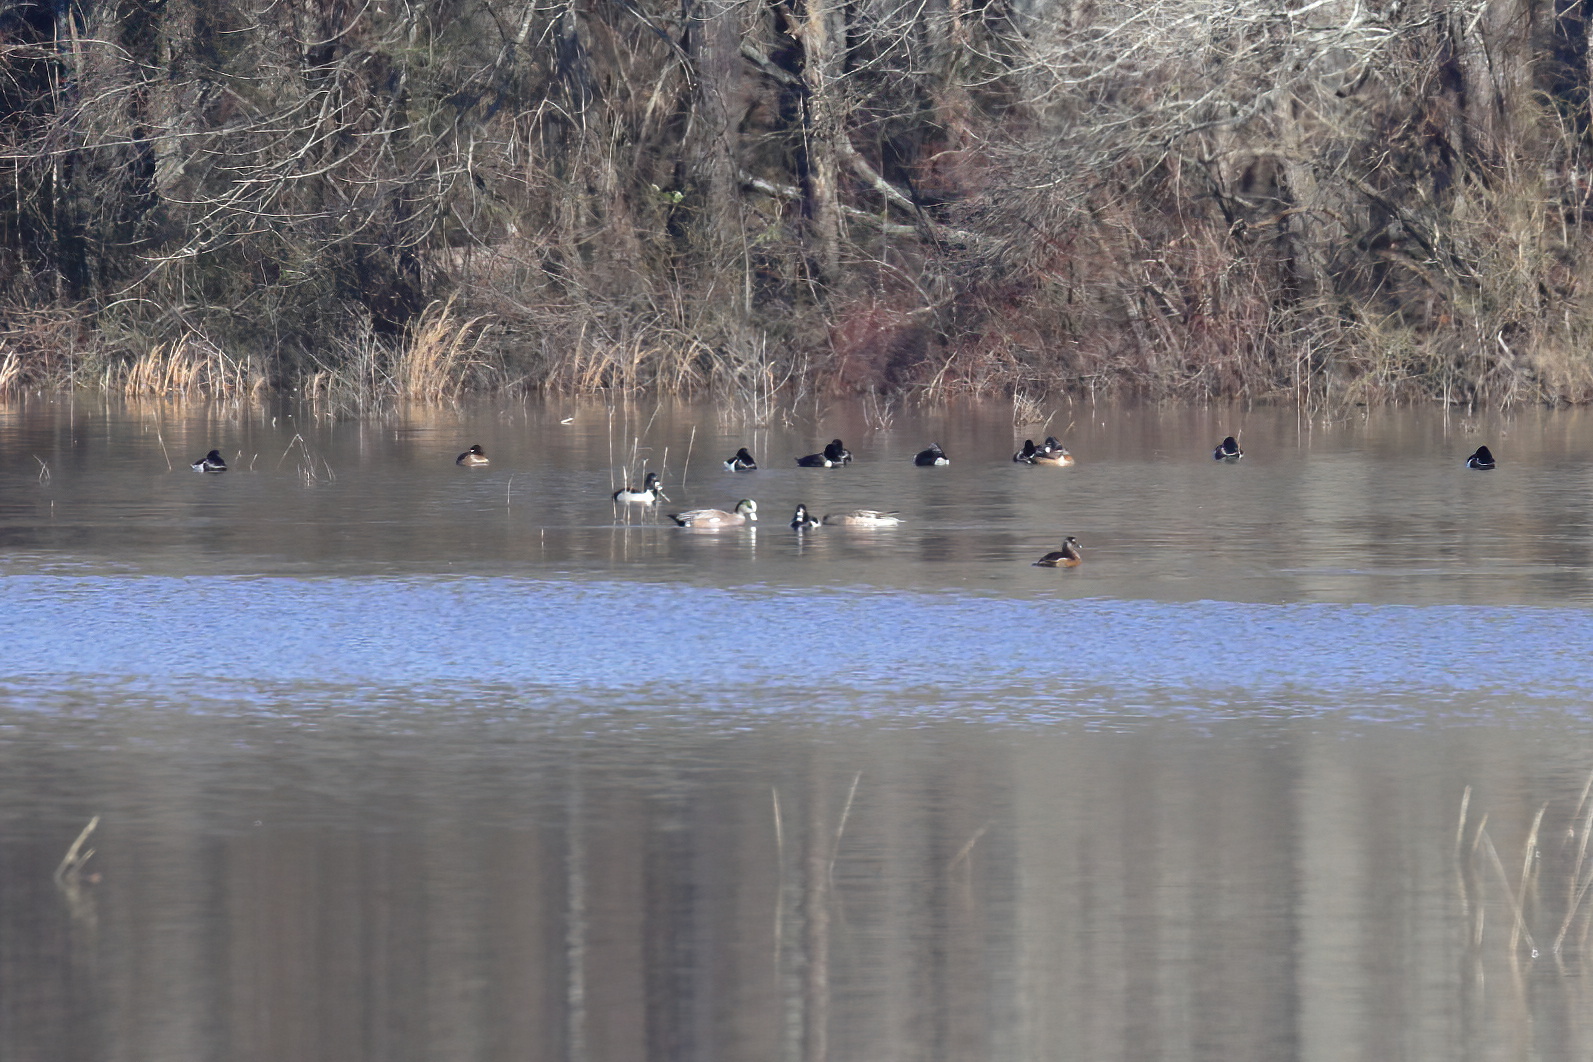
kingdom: Animalia
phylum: Chordata
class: Aves
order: Anseriformes
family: Anatidae
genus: Mareca
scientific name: Mareca americana
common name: American wigeon
